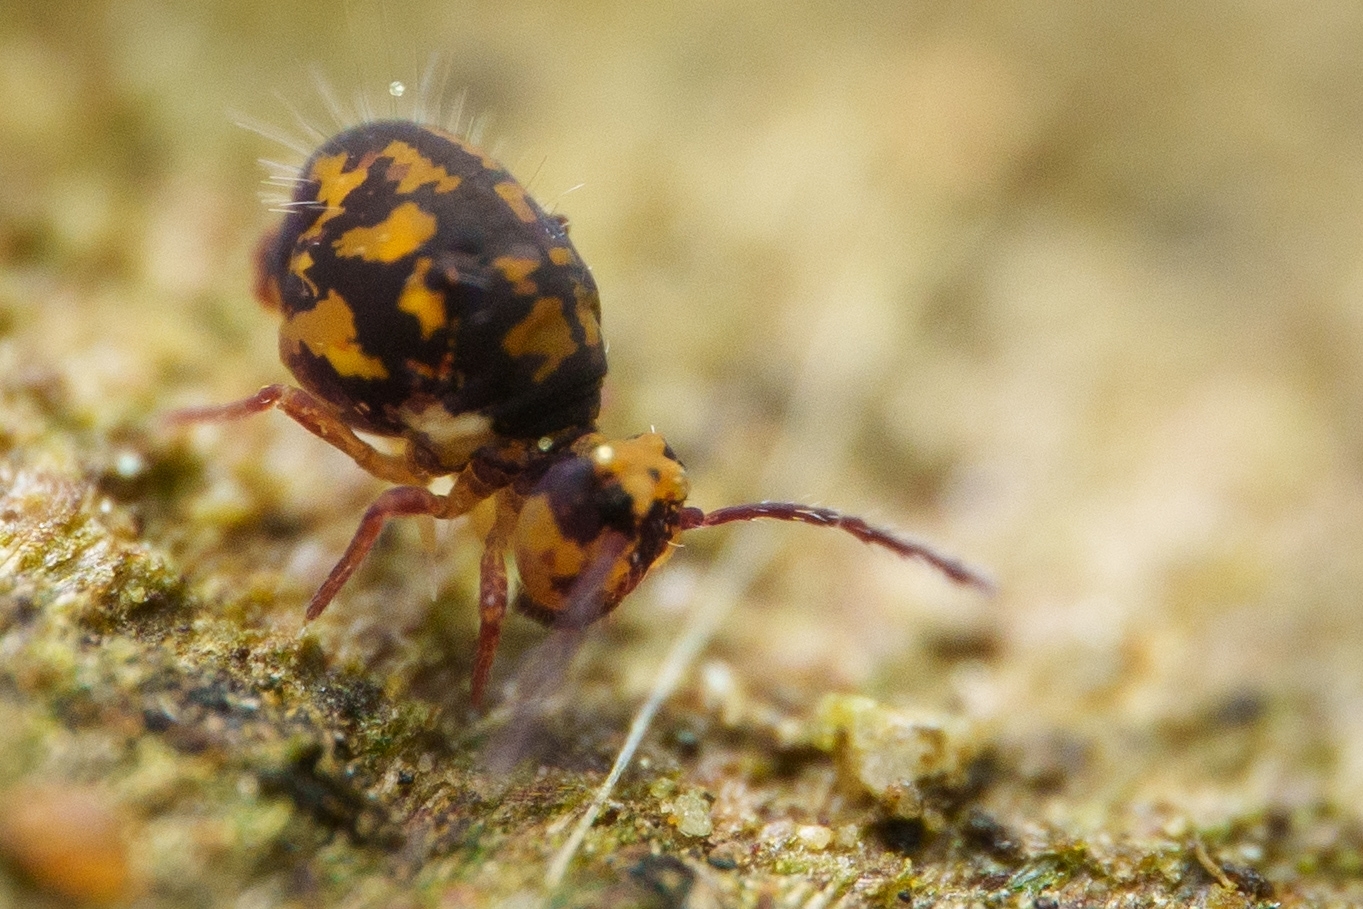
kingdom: Animalia
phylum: Arthropoda
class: Collembola
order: Symphypleona
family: Dicyrtomidae
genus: Dicyrtoma
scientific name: Dicyrtoma hageni
